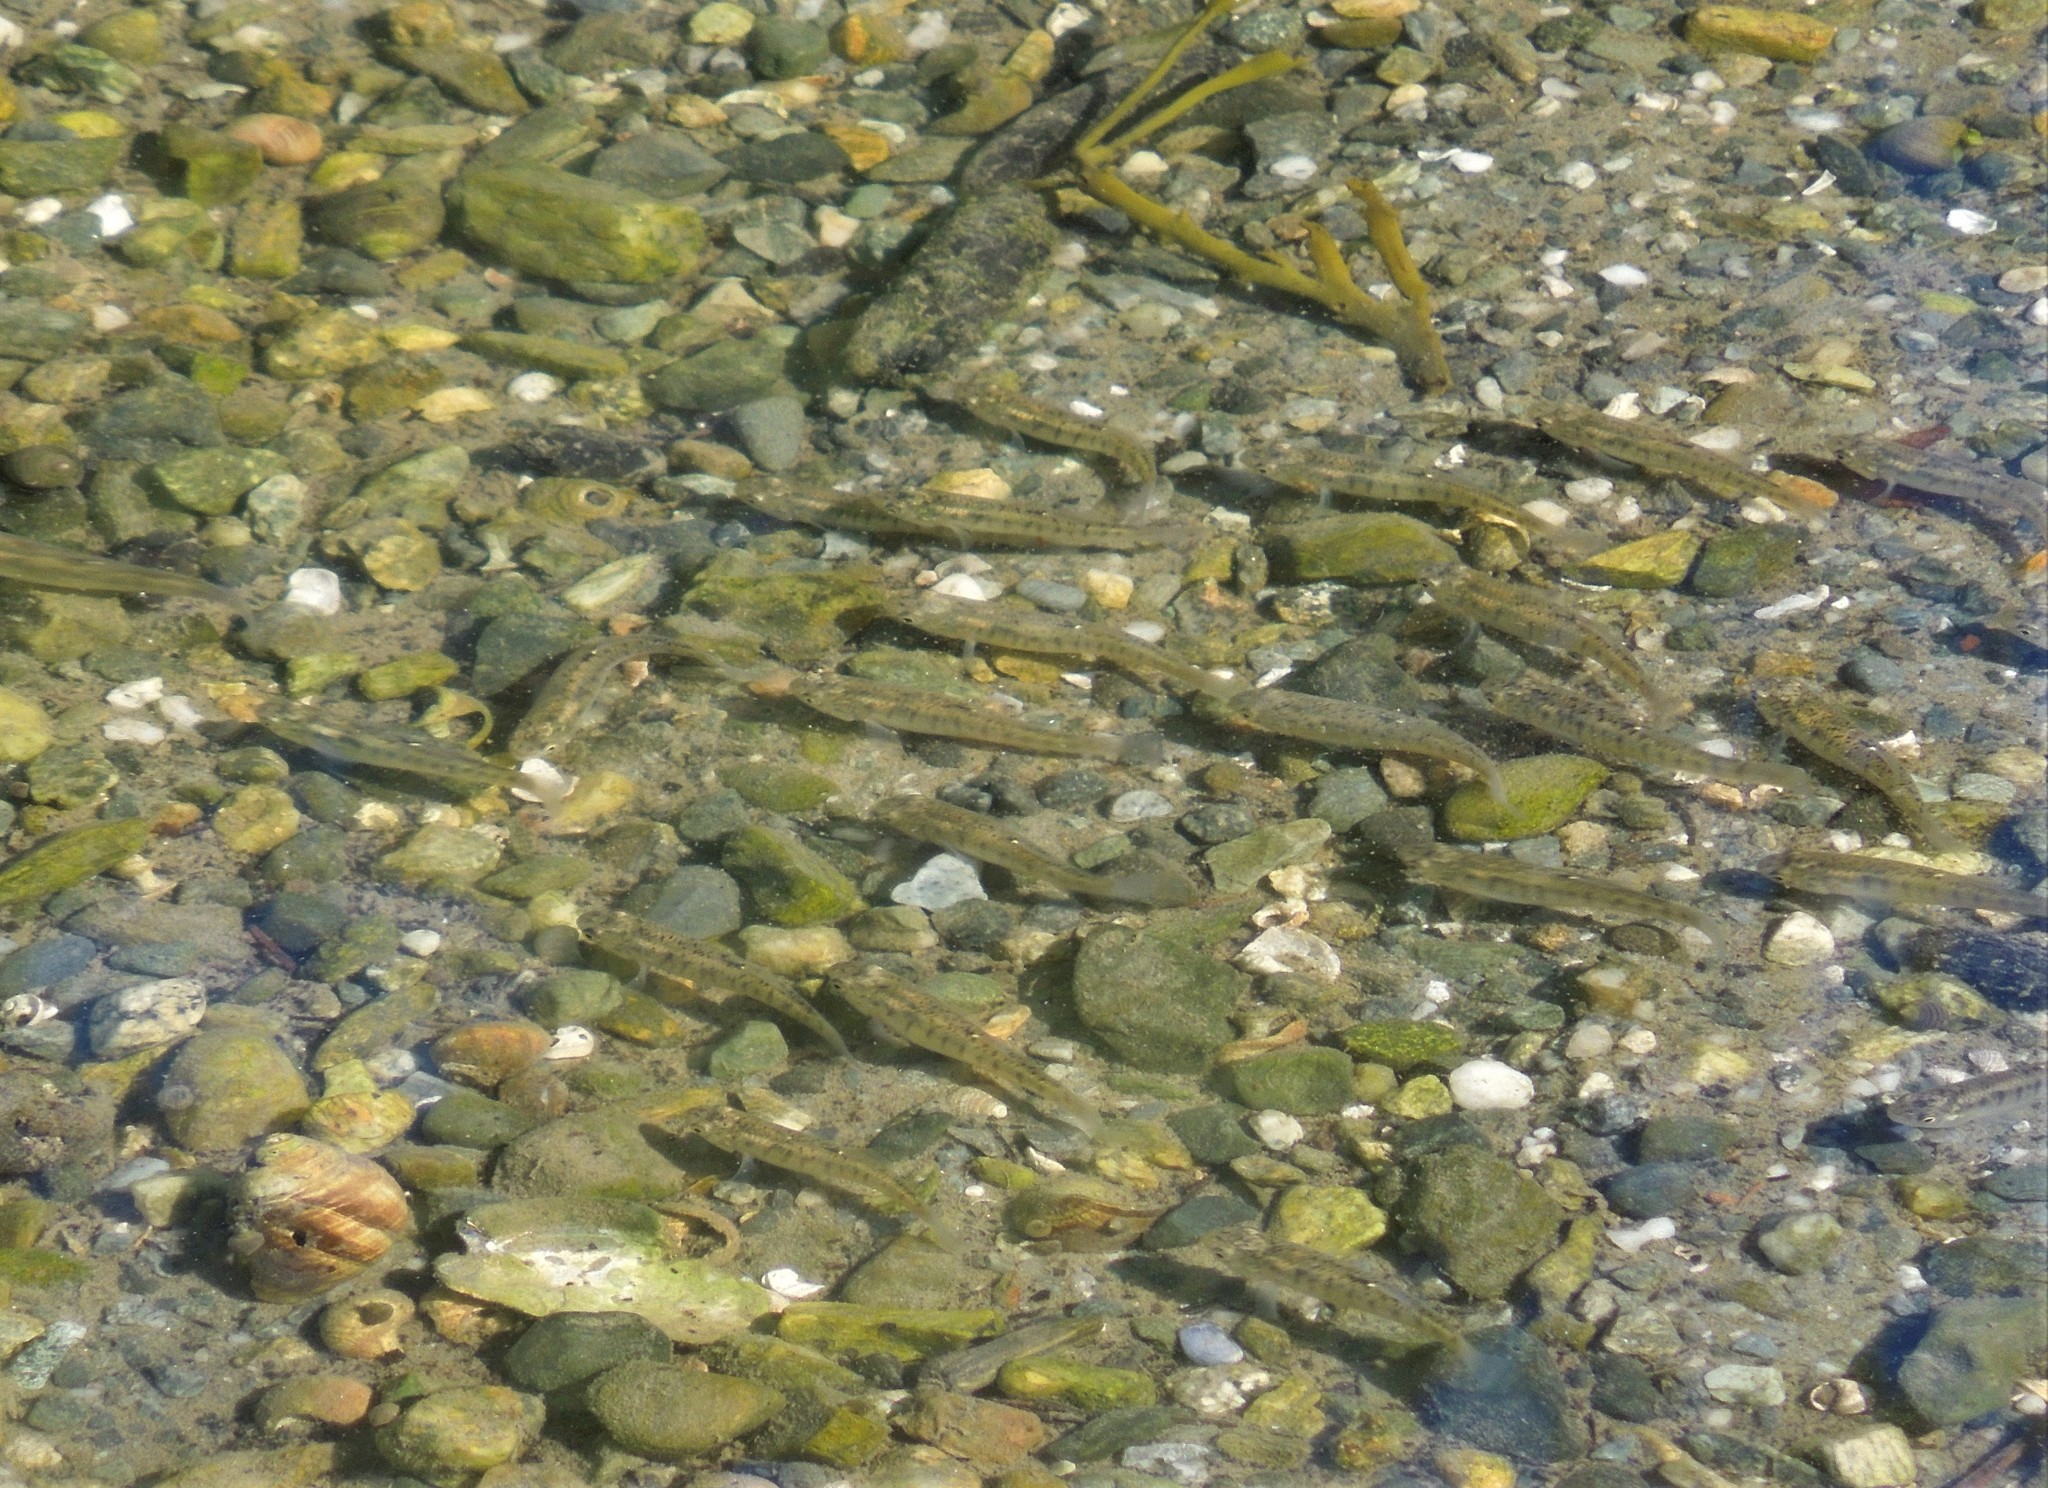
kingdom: Animalia
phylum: Chordata
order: Cyprinodontiformes
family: Fundulidae
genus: Fundulus
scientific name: Fundulus diaphanus
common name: Banded killifish
